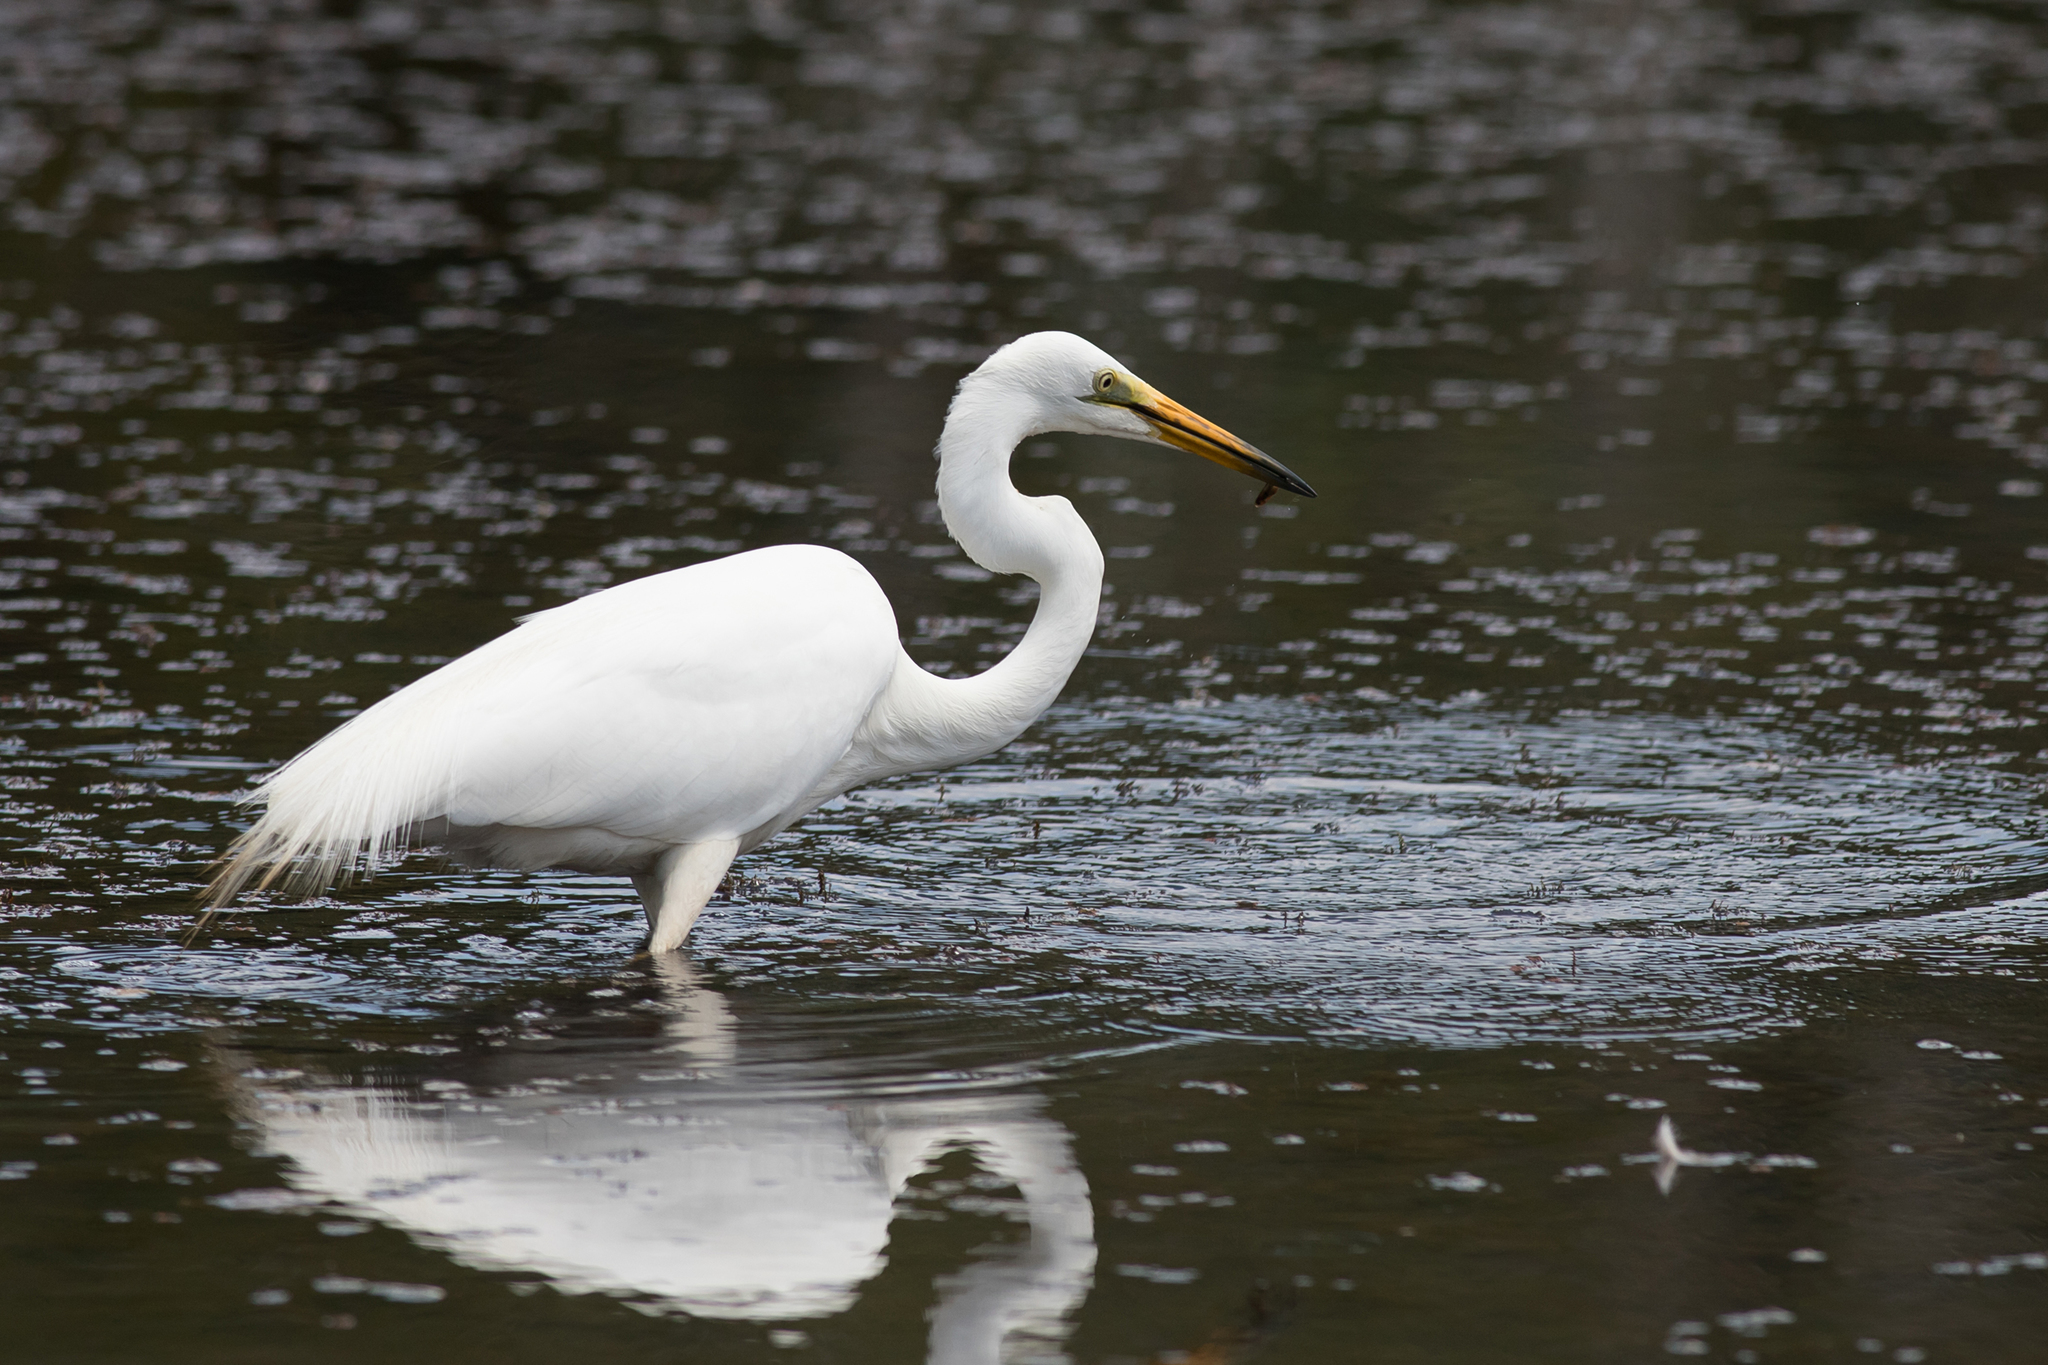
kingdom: Animalia
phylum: Chordata
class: Aves
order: Pelecaniformes
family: Ardeidae
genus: Ardea
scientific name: Ardea alba
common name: Great egret
